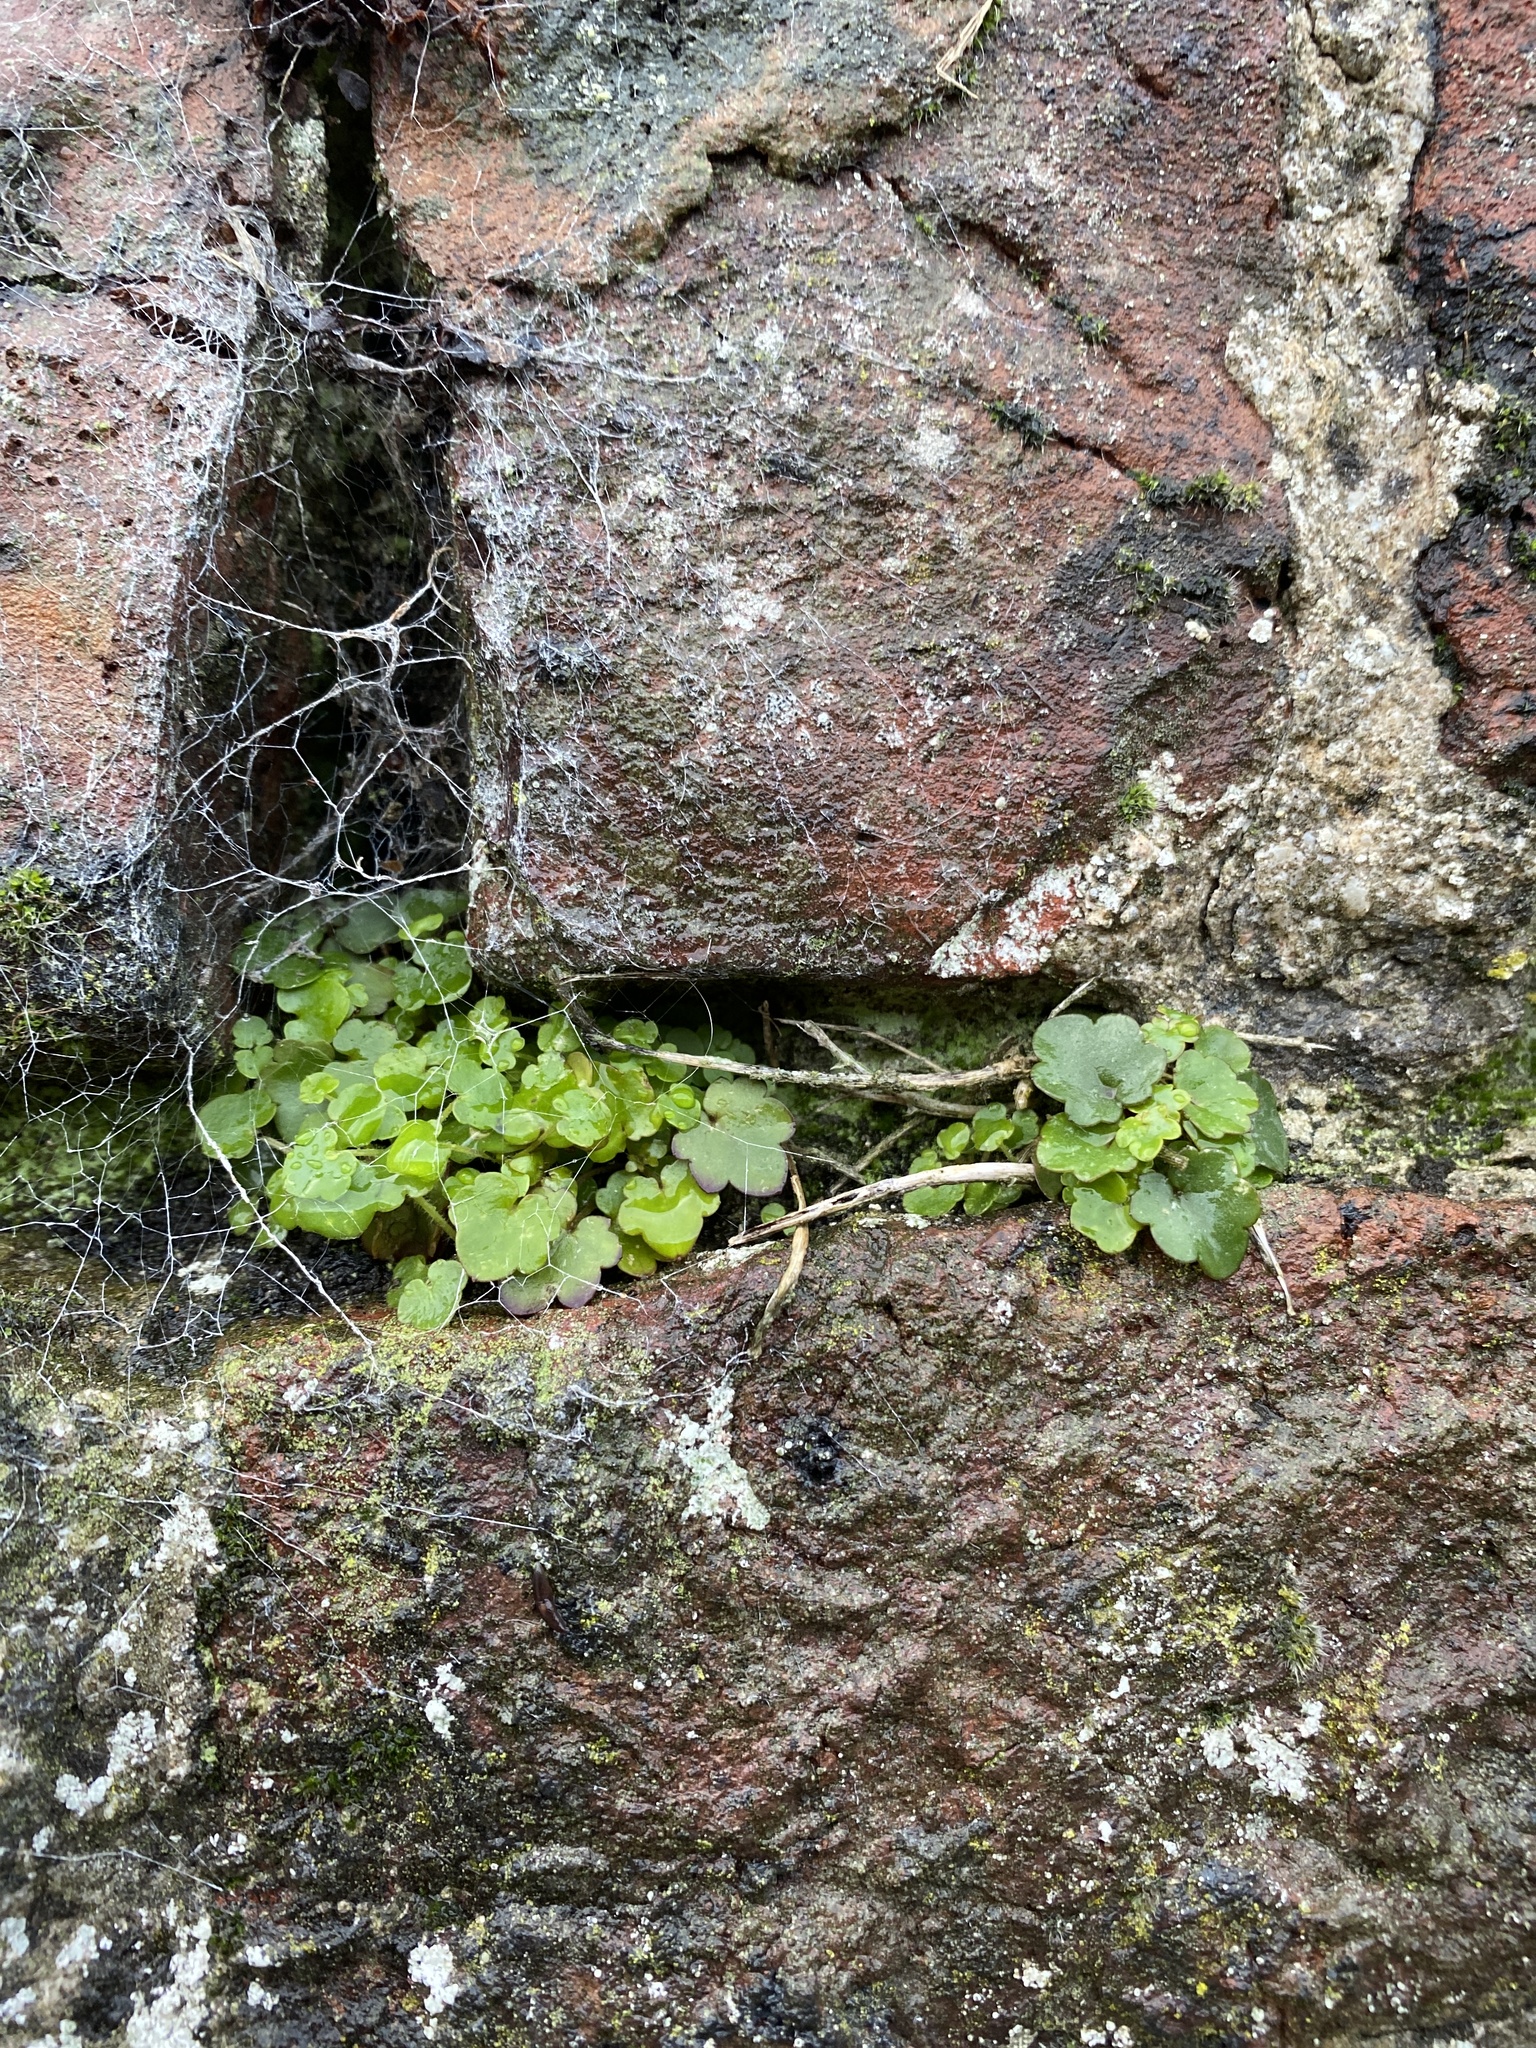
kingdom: Plantae
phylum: Tracheophyta
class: Magnoliopsida
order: Lamiales
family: Plantaginaceae
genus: Cymbalaria
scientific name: Cymbalaria muralis
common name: Ivy-leaved toadflax
